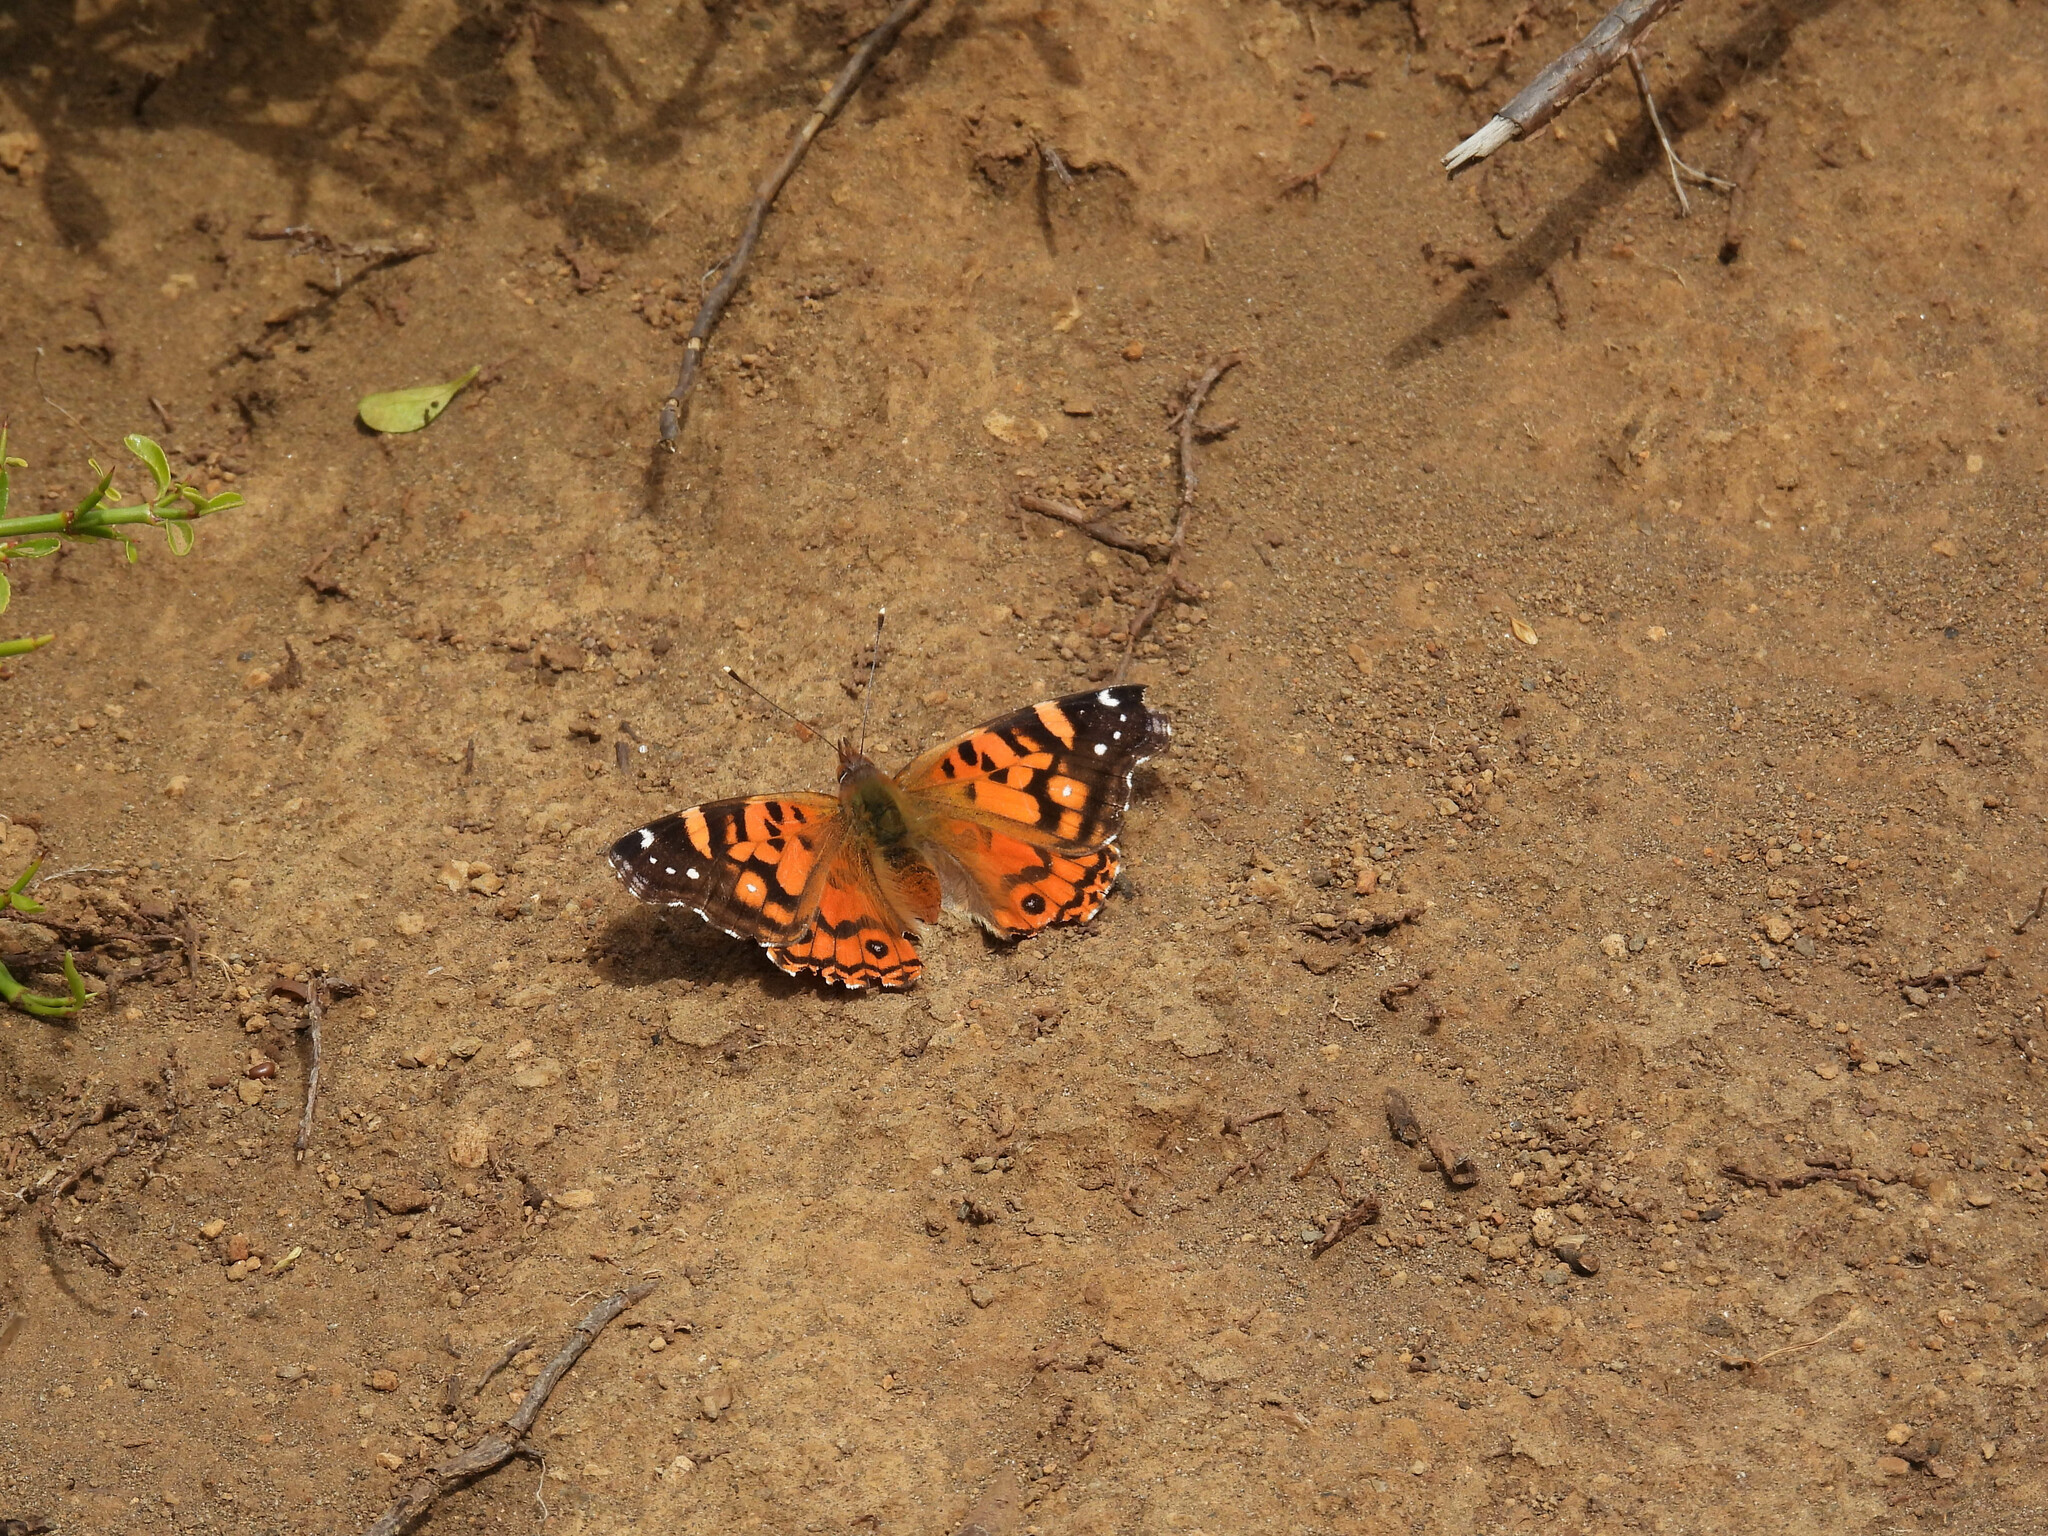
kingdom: Animalia
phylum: Arthropoda
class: Insecta
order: Lepidoptera
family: Nymphalidae
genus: Vanessa
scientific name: Vanessa terpsichore
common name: Chilean lady
